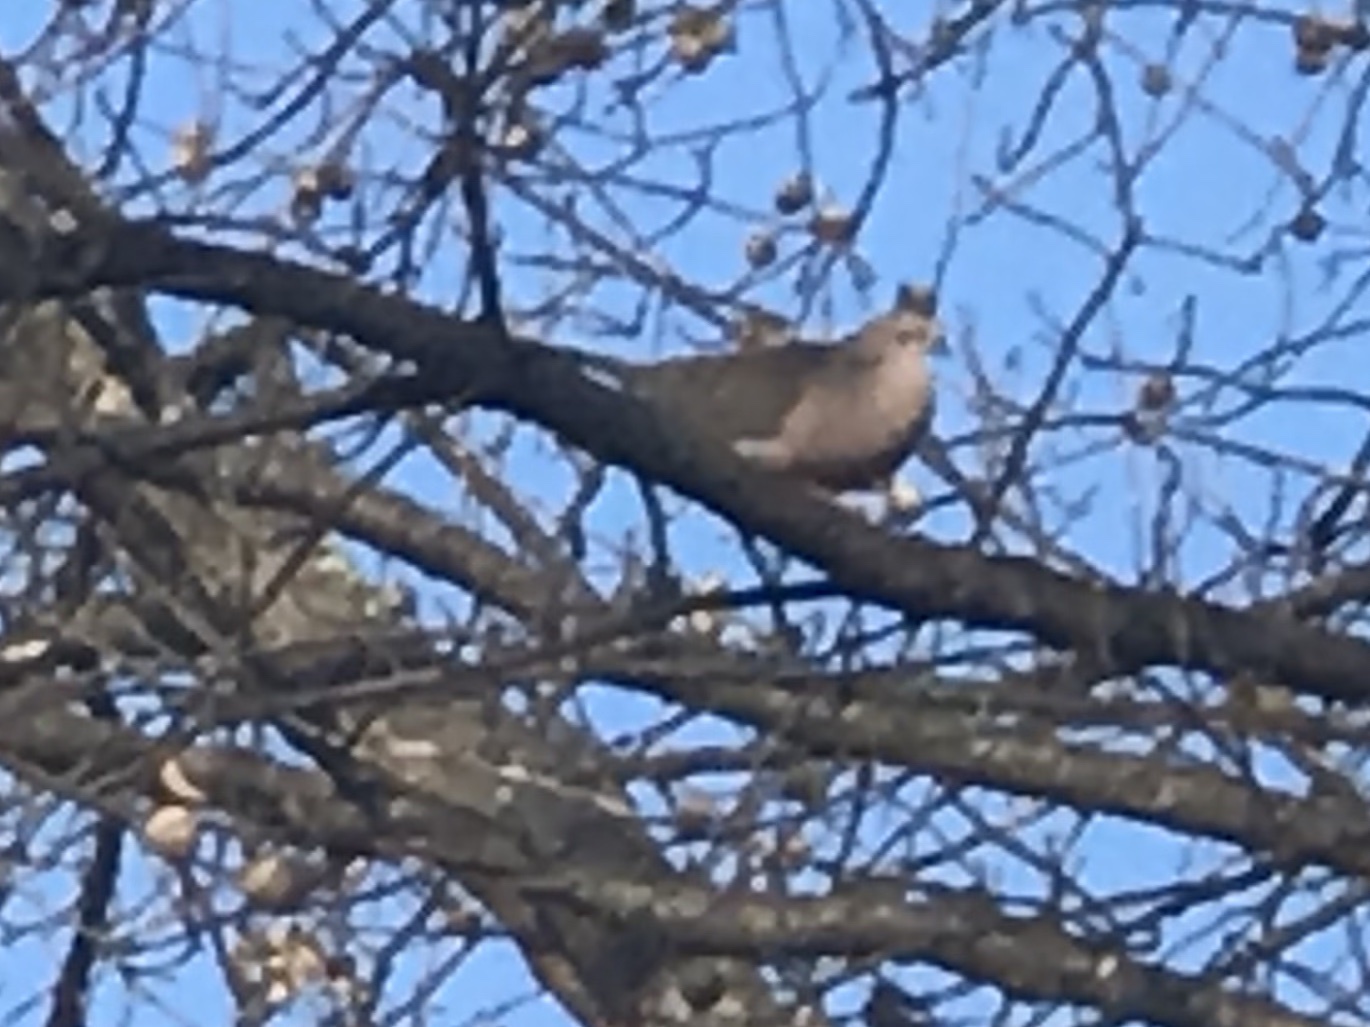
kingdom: Animalia
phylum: Chordata
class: Aves
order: Columbiformes
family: Columbidae
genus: Zenaida
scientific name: Zenaida macroura
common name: Mourning dove
